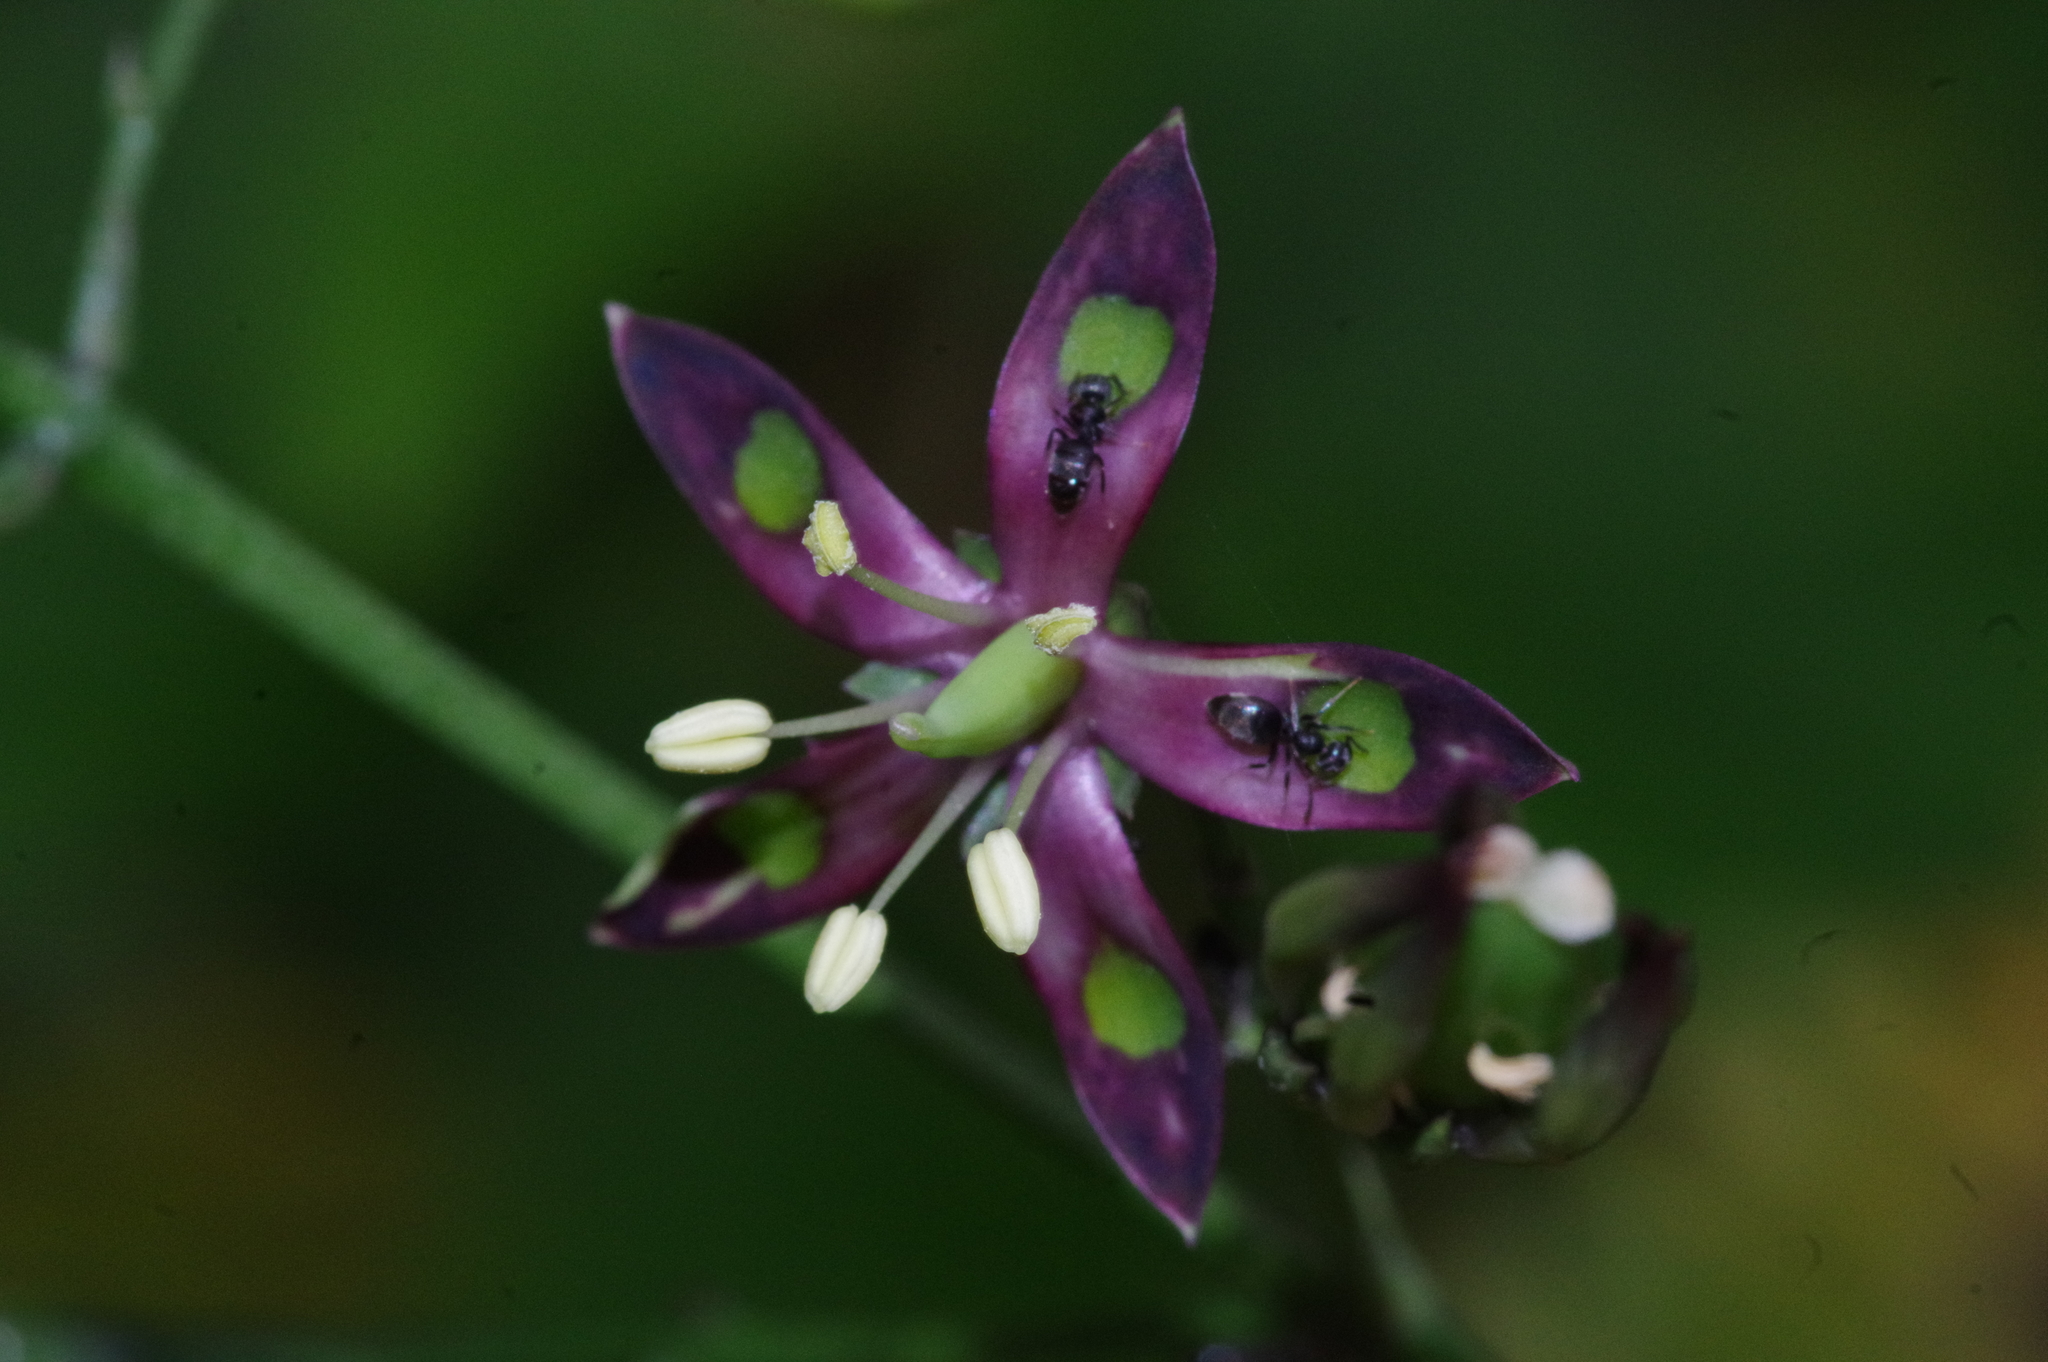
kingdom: Animalia
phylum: Arthropoda
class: Insecta
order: Hymenoptera
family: Formicidae
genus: Technomyrmex
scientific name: Technomyrmex brunneus
